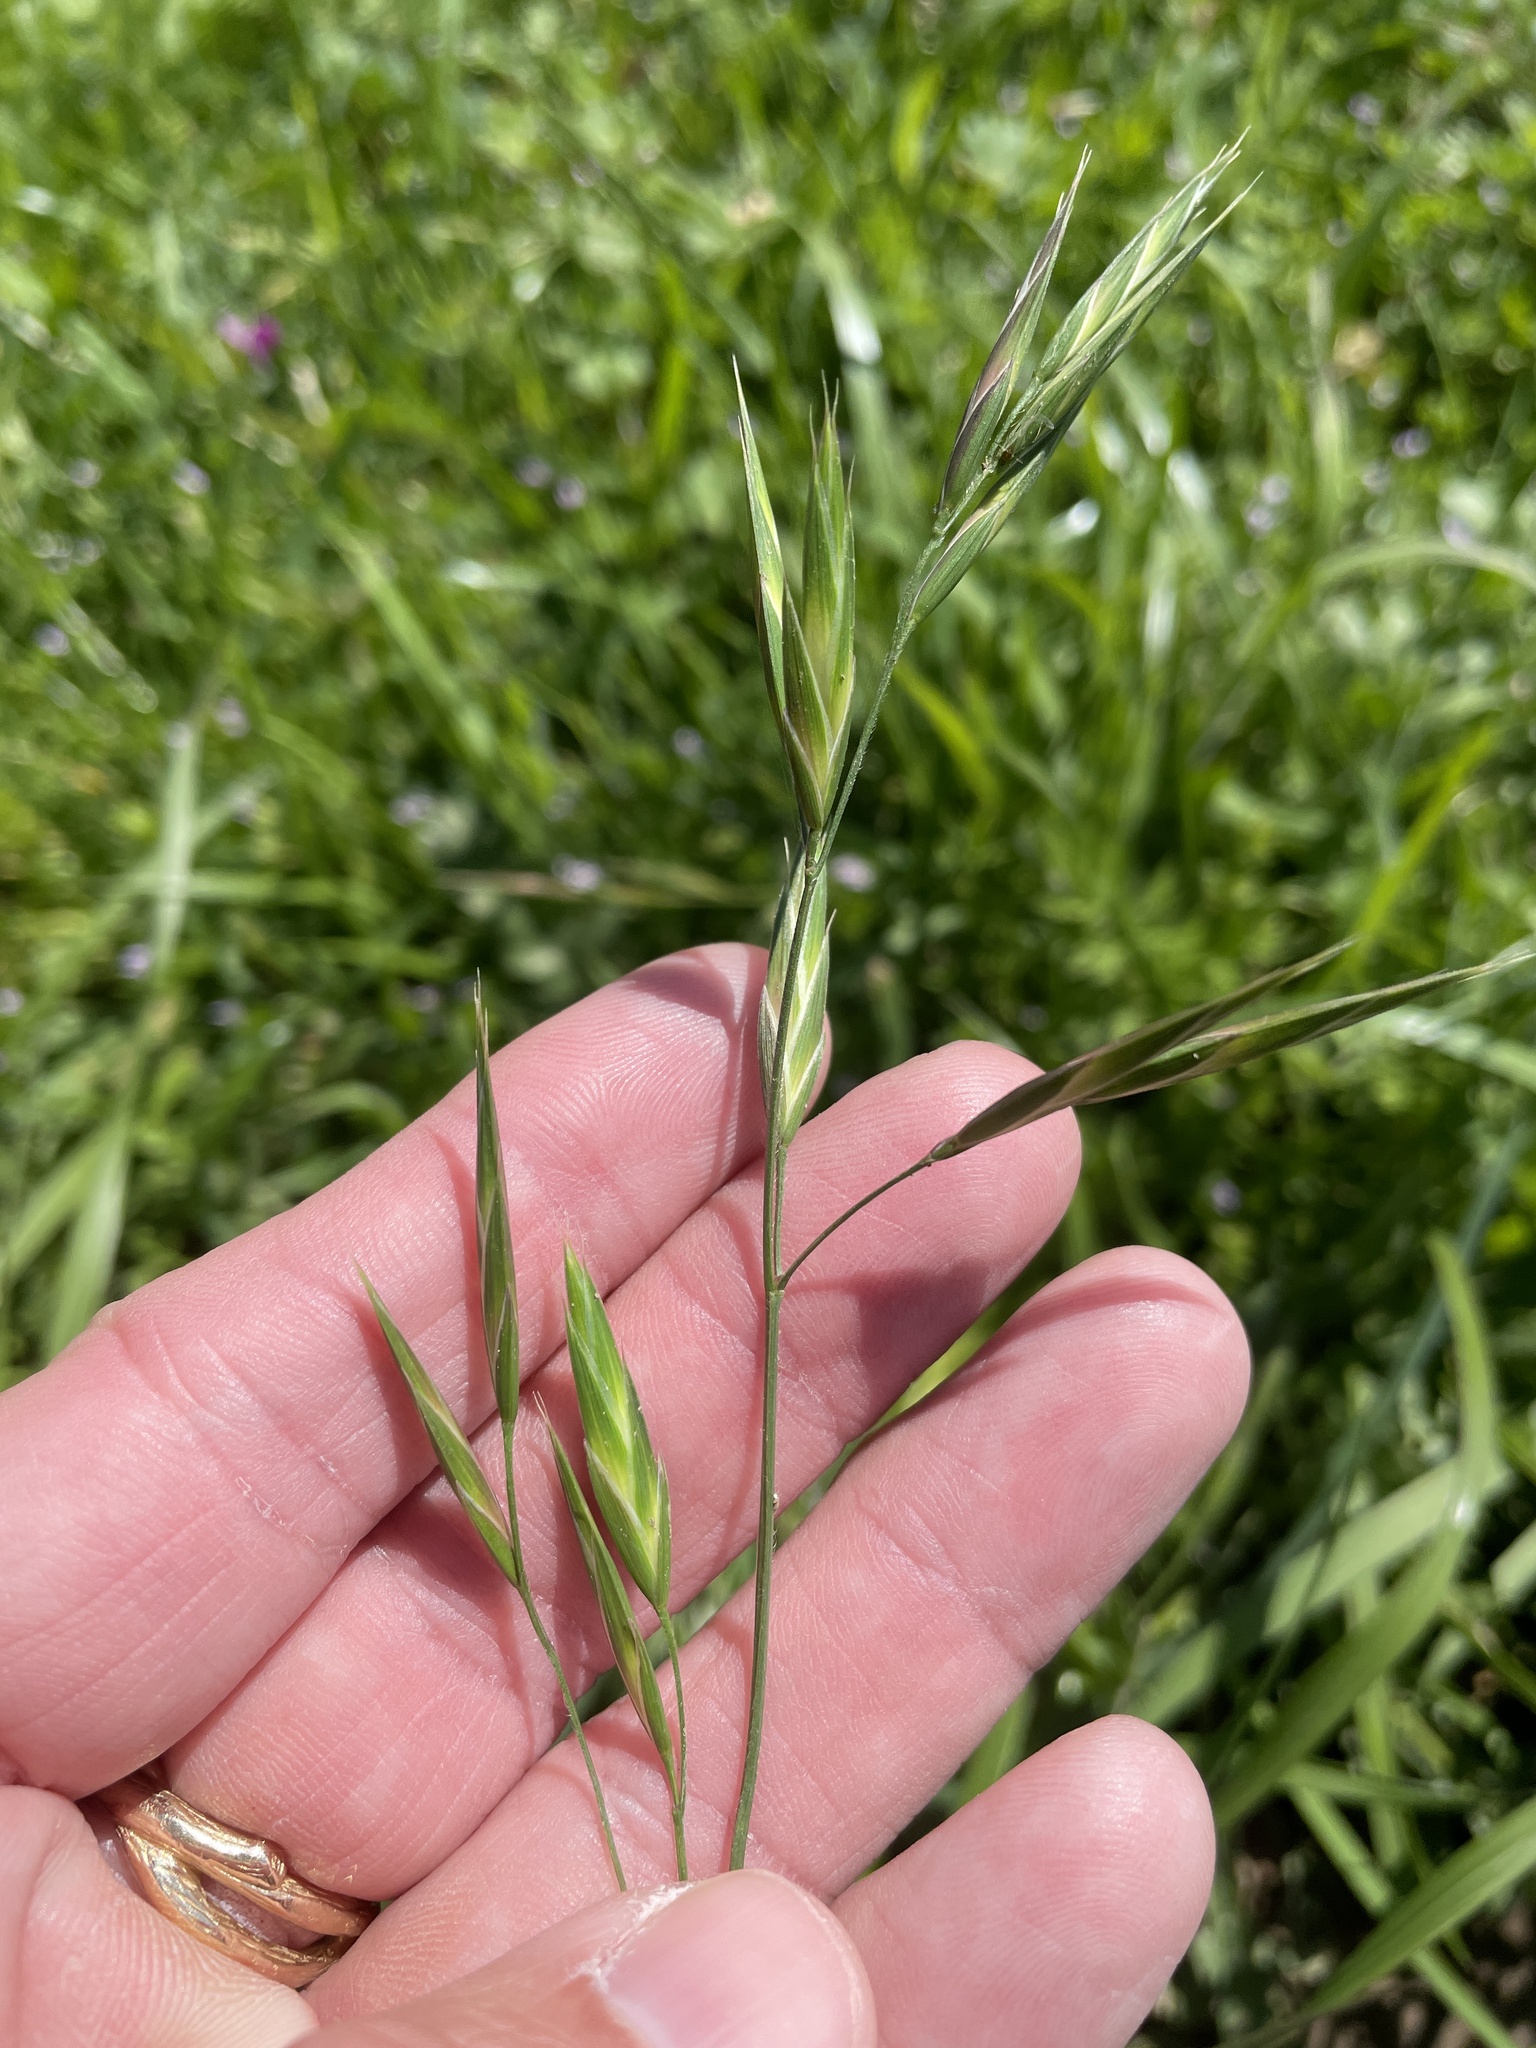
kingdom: Plantae
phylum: Tracheophyta
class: Liliopsida
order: Poales
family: Poaceae
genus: Bromus
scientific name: Bromus catharticus
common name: Rescuegrass
